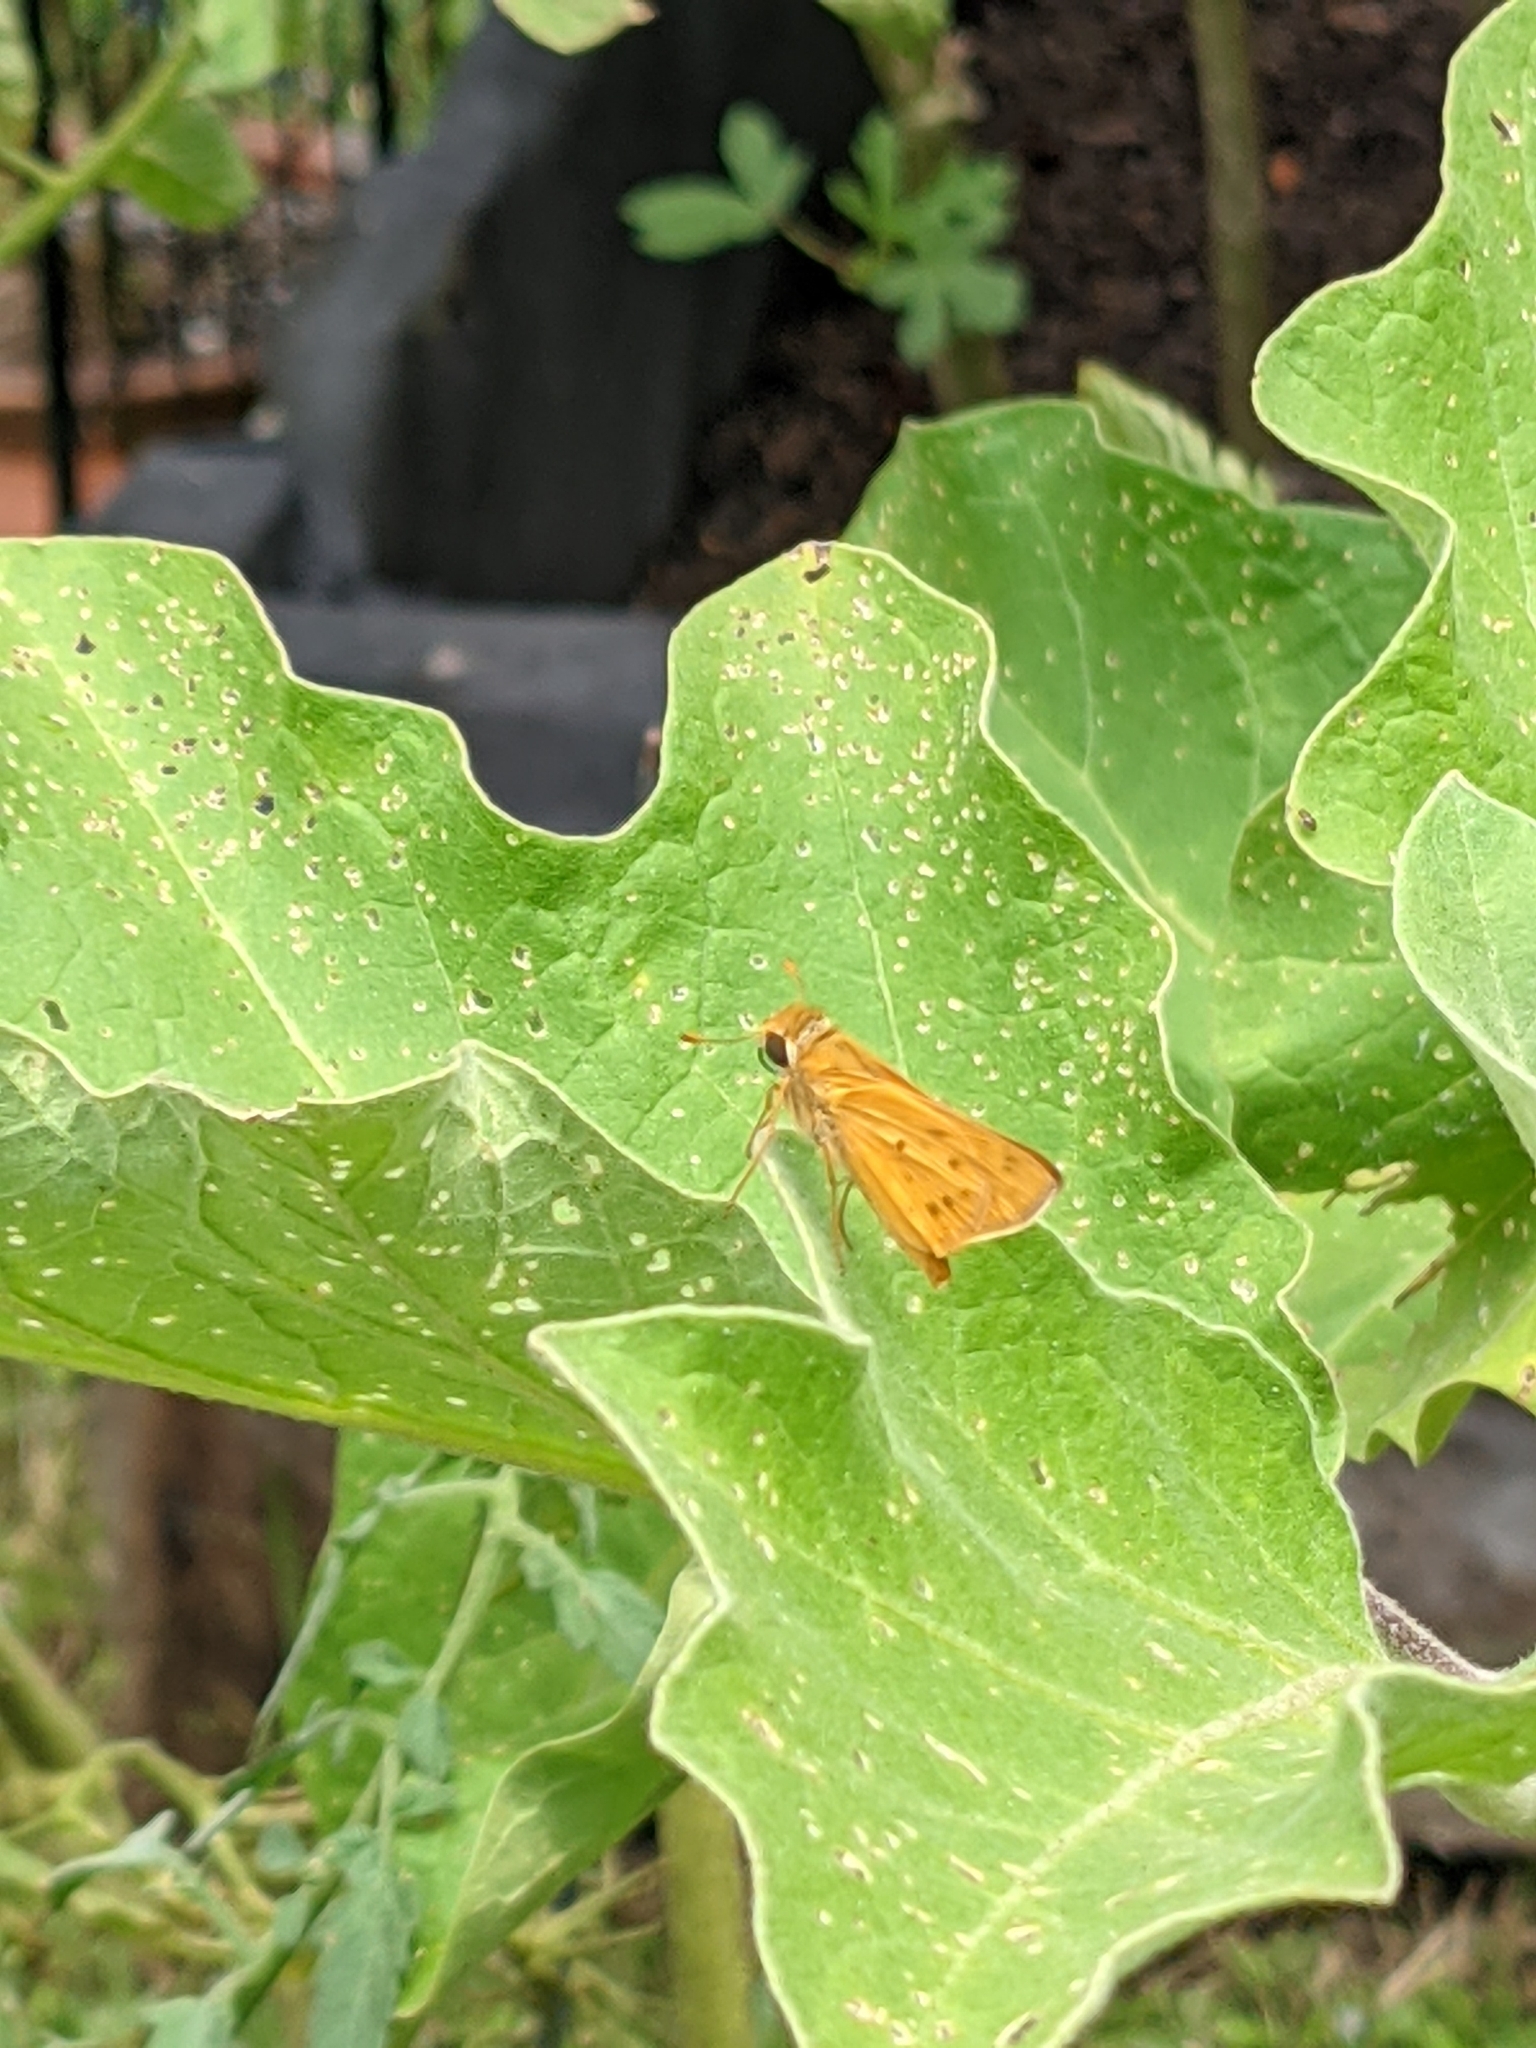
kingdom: Animalia
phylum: Arthropoda
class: Insecta
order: Lepidoptera
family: Hesperiidae
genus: Hylephila
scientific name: Hylephila phyleus
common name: Fiery skipper
